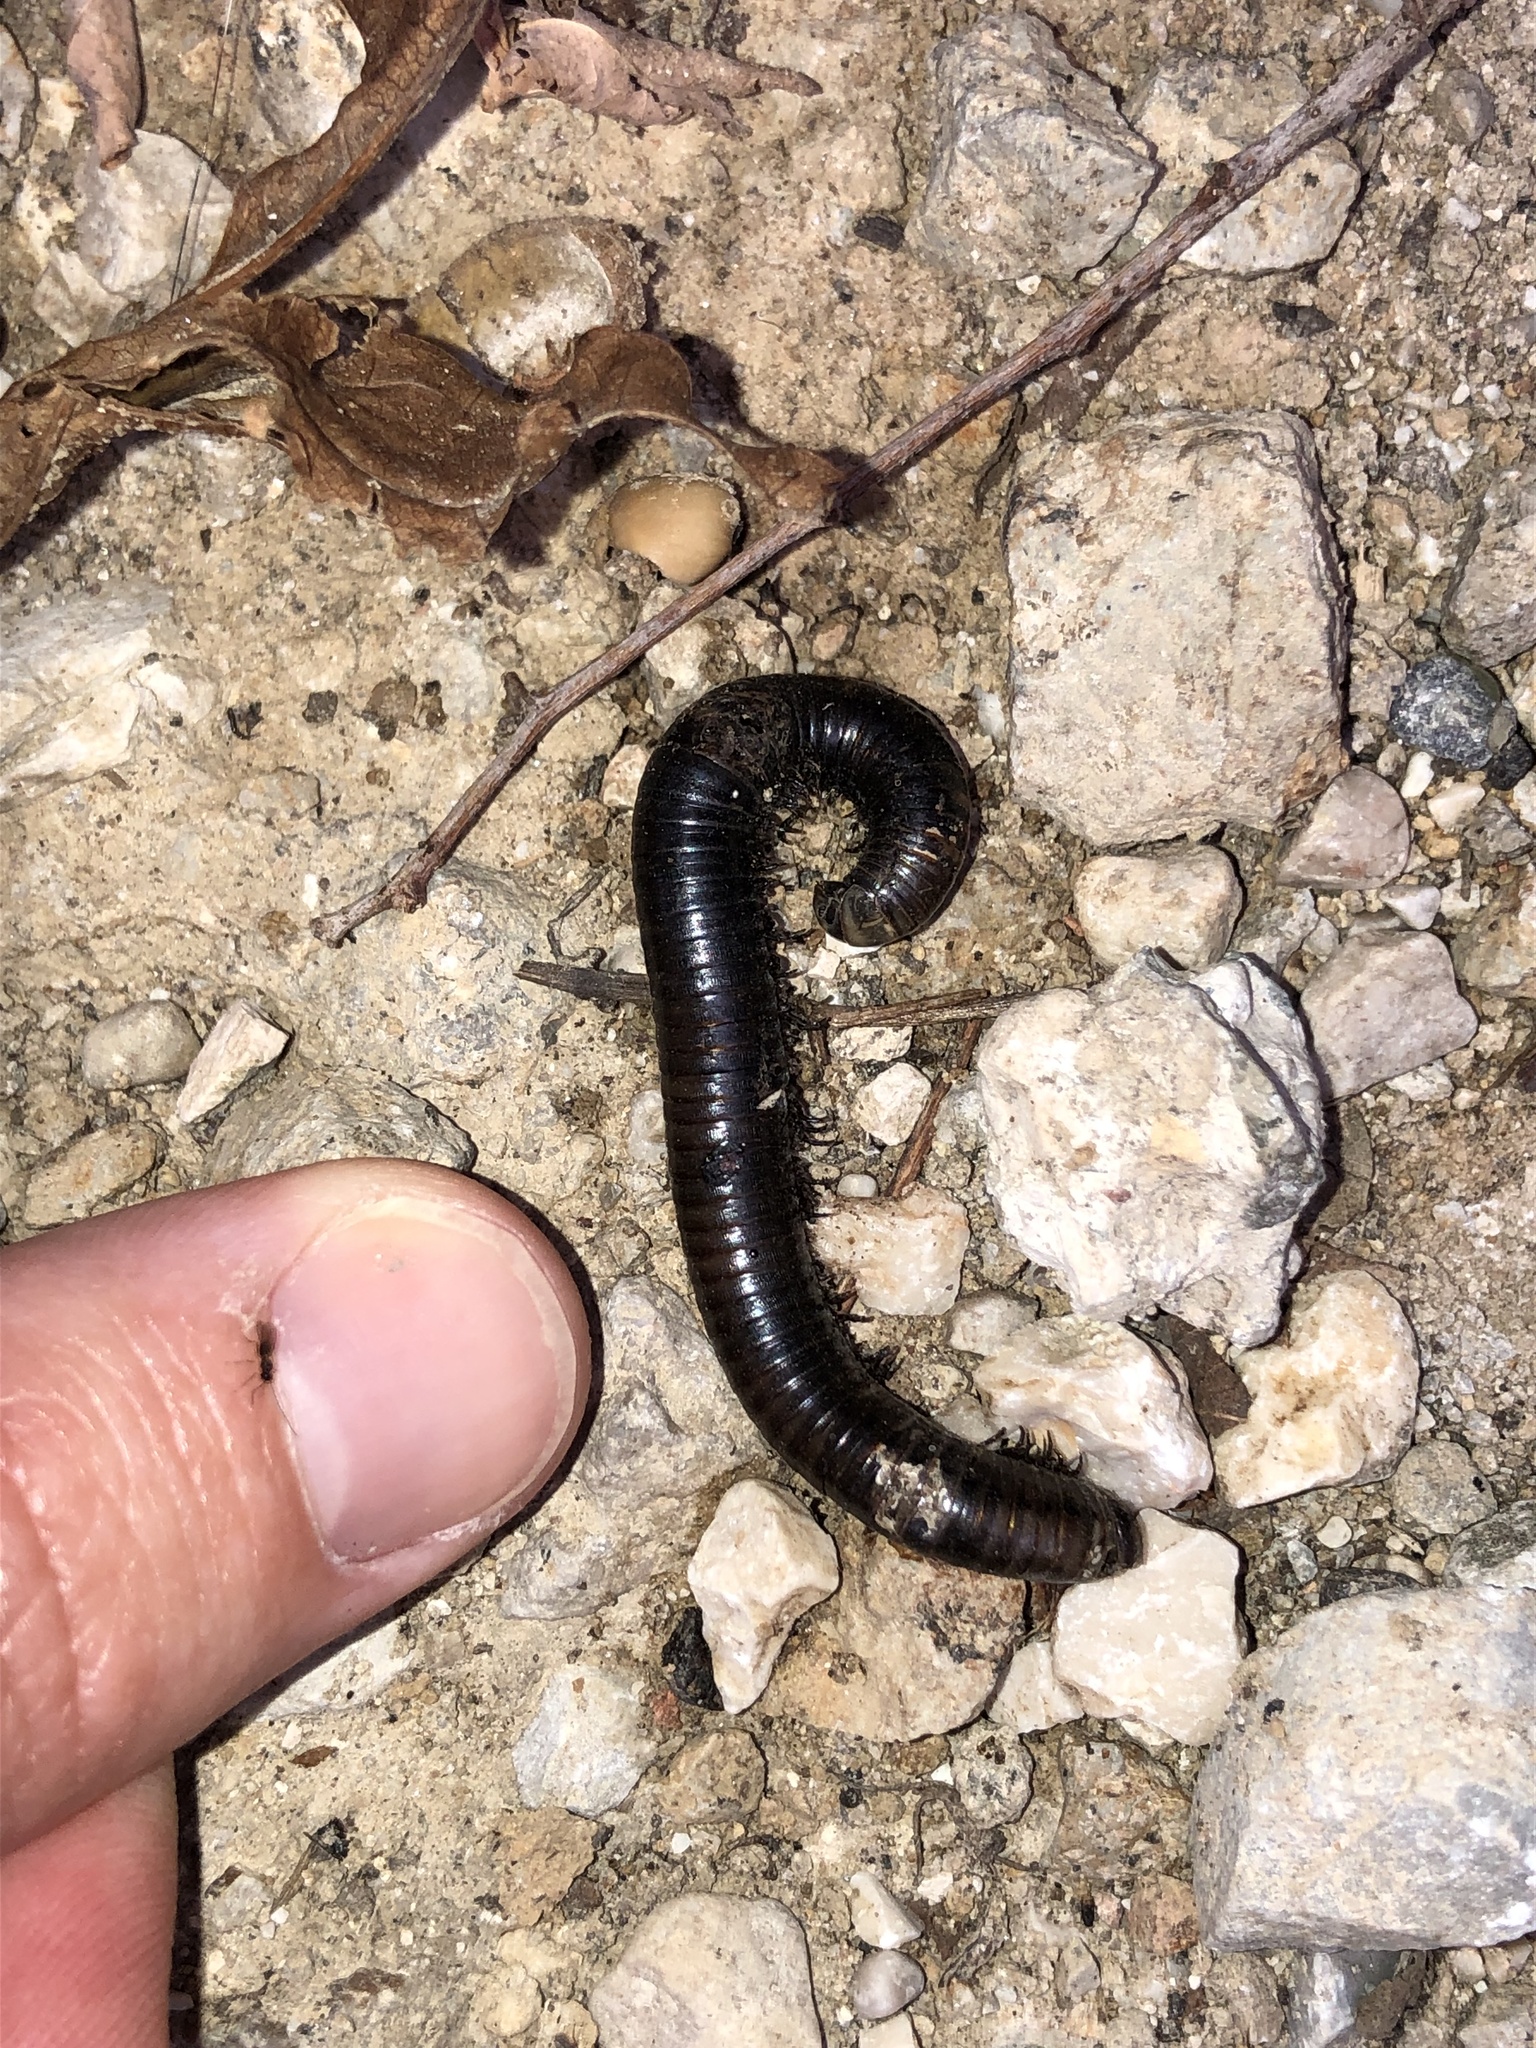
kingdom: Animalia
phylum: Arthropoda
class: Diplopoda
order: Julida
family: Julidae
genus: Pachyiulus
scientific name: Pachyiulus varius
